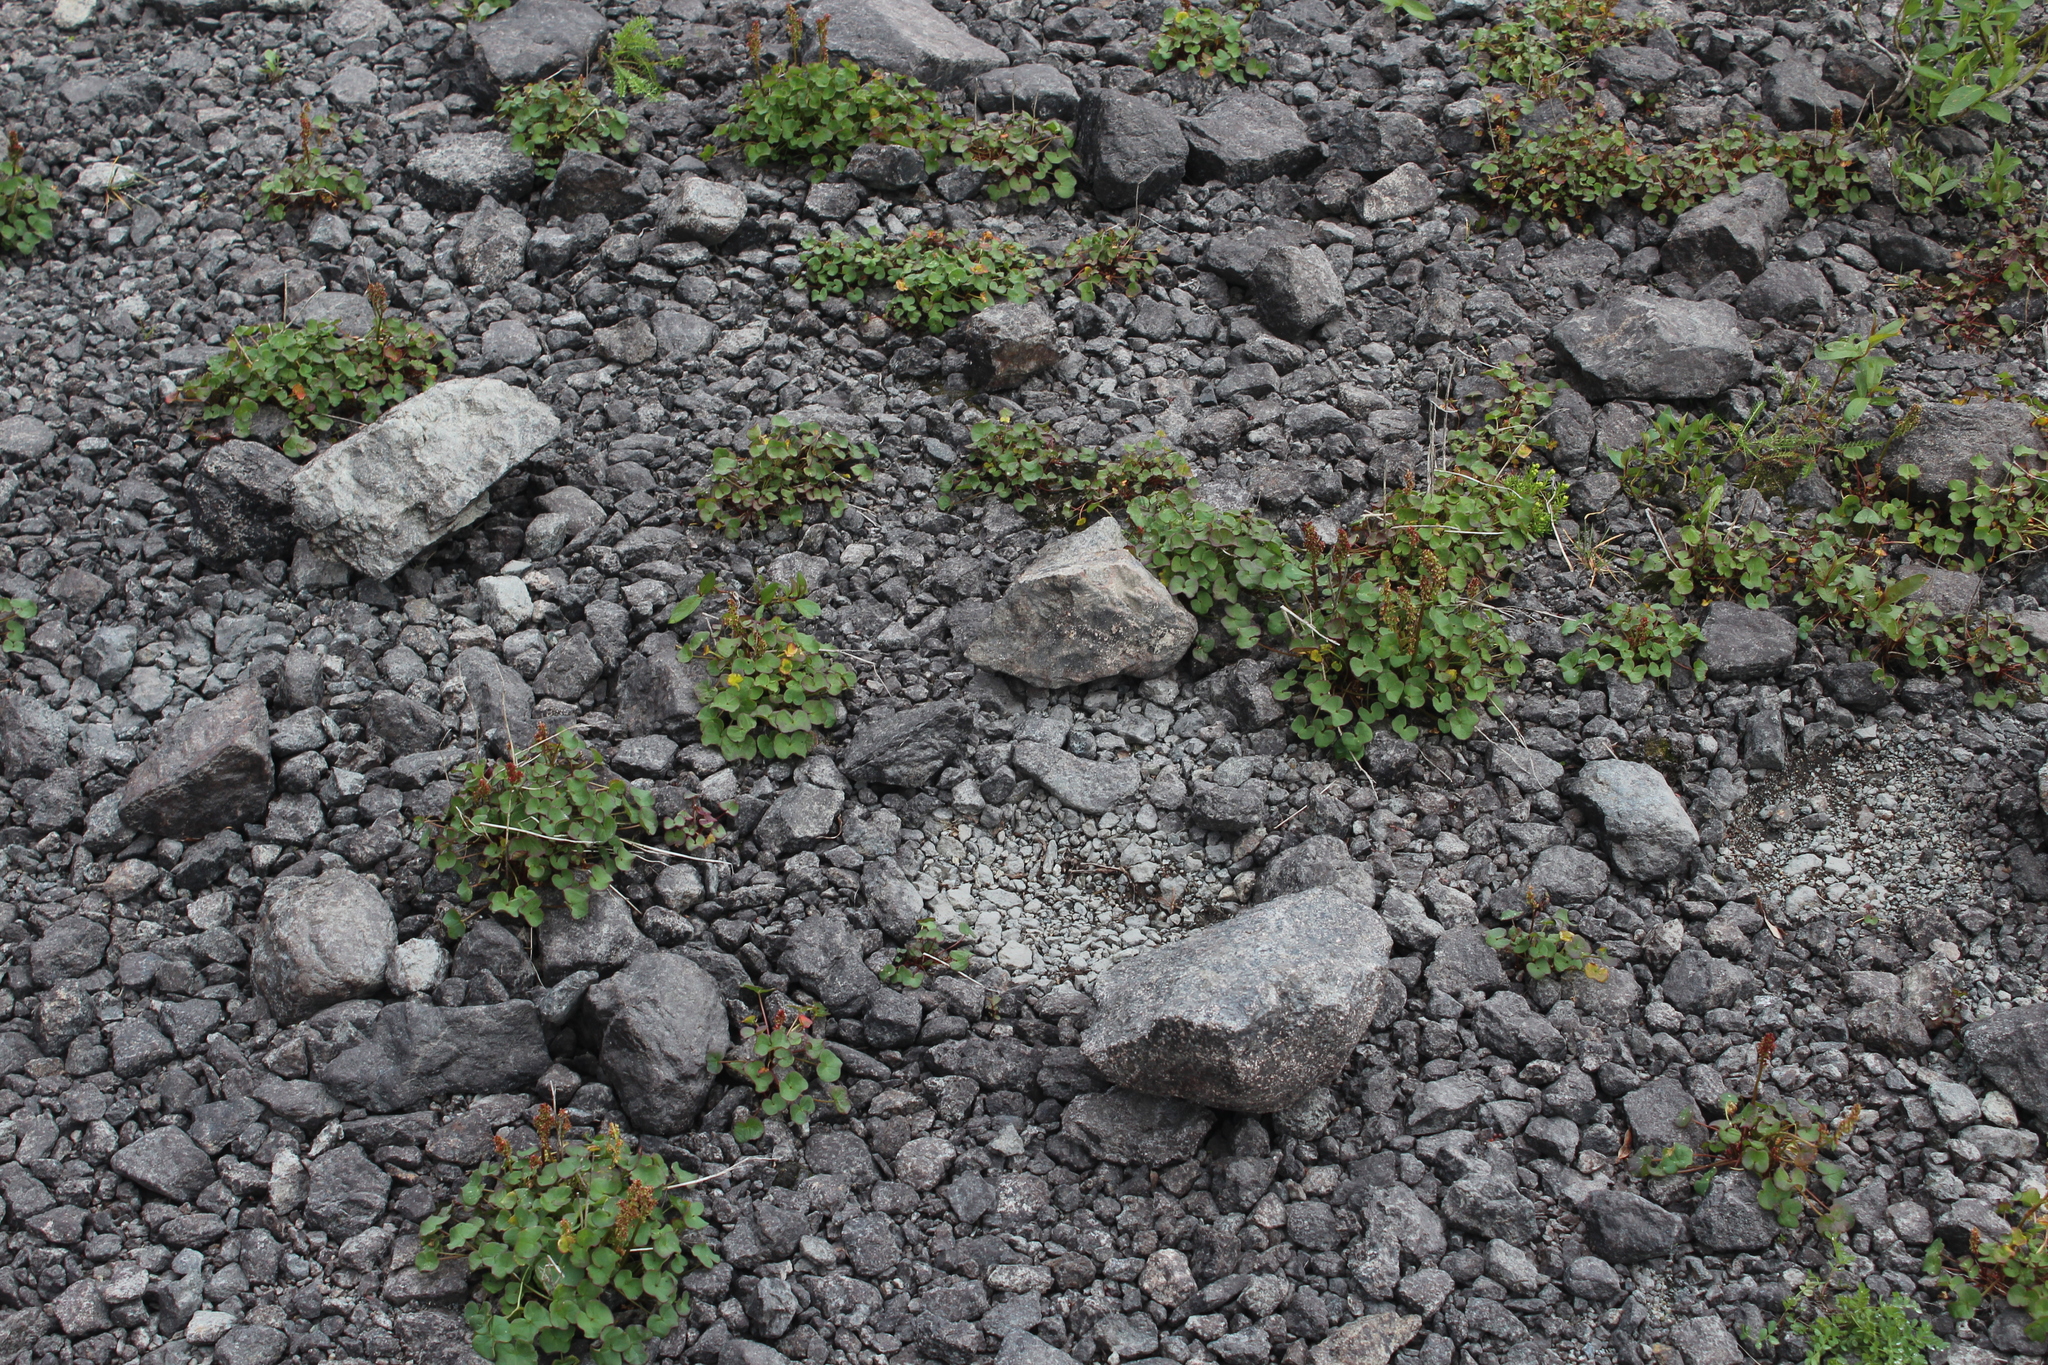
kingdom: Plantae
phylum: Tracheophyta
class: Magnoliopsida
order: Caryophyllales
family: Polygonaceae
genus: Oxyria
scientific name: Oxyria digyna
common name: Alpine mountain-sorrel
